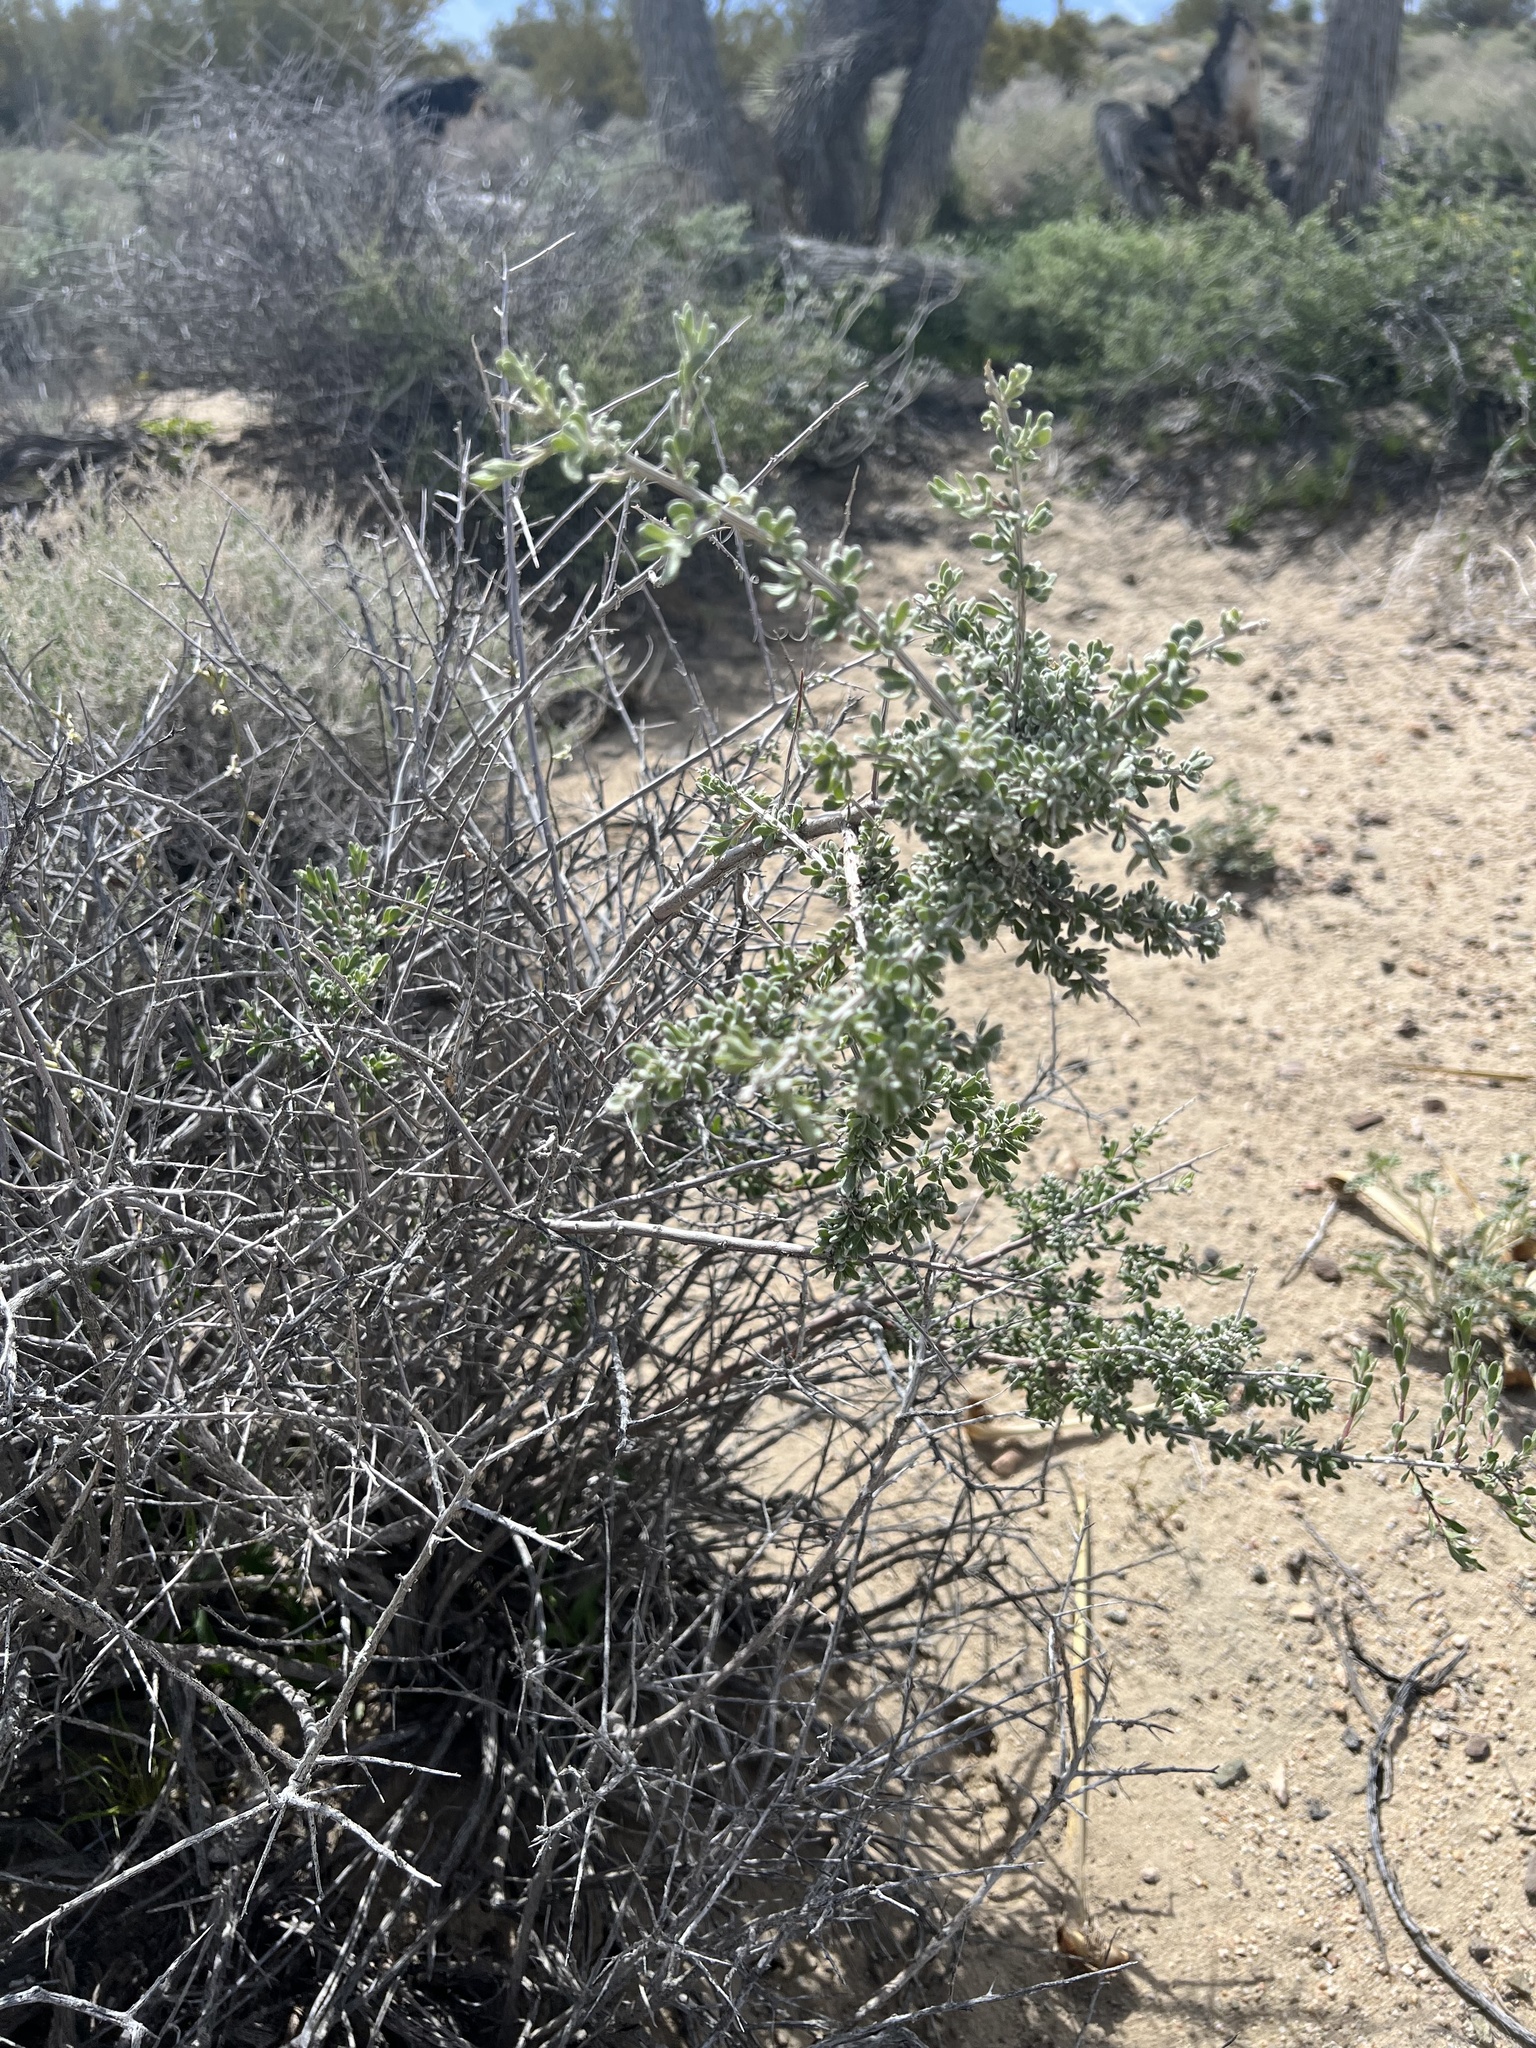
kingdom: Plantae
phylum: Tracheophyta
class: Magnoliopsida
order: Caryophyllales
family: Amaranthaceae
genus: Grayia
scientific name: Grayia spinosa
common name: Spiny hopsage
